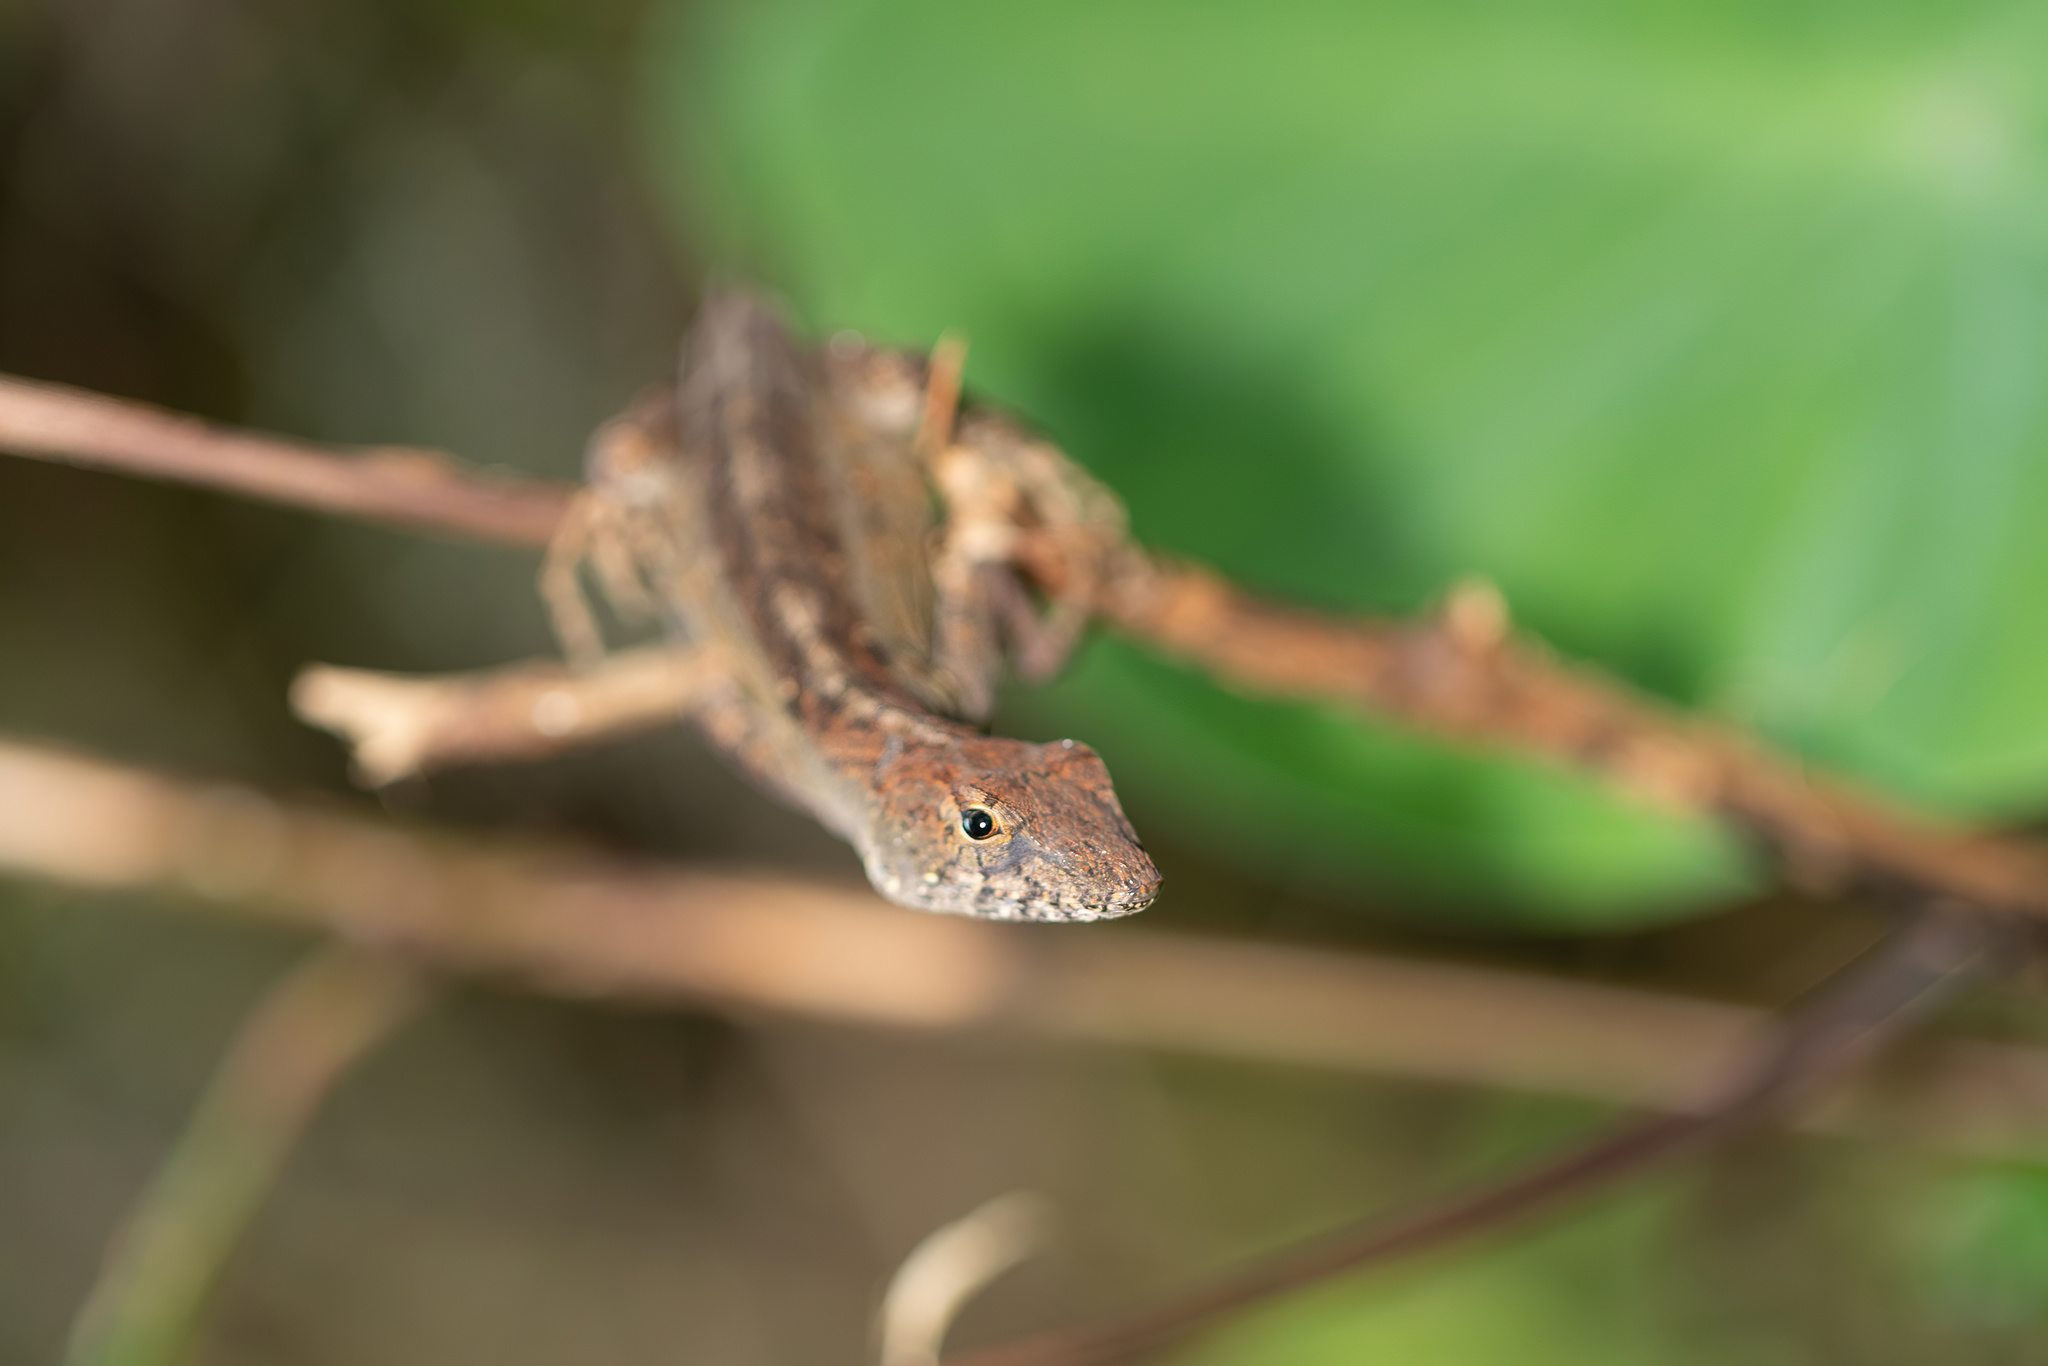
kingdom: Animalia
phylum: Chordata
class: Squamata
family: Dactyloidae
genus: Anolis
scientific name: Anolis sagrei
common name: Brown anole
